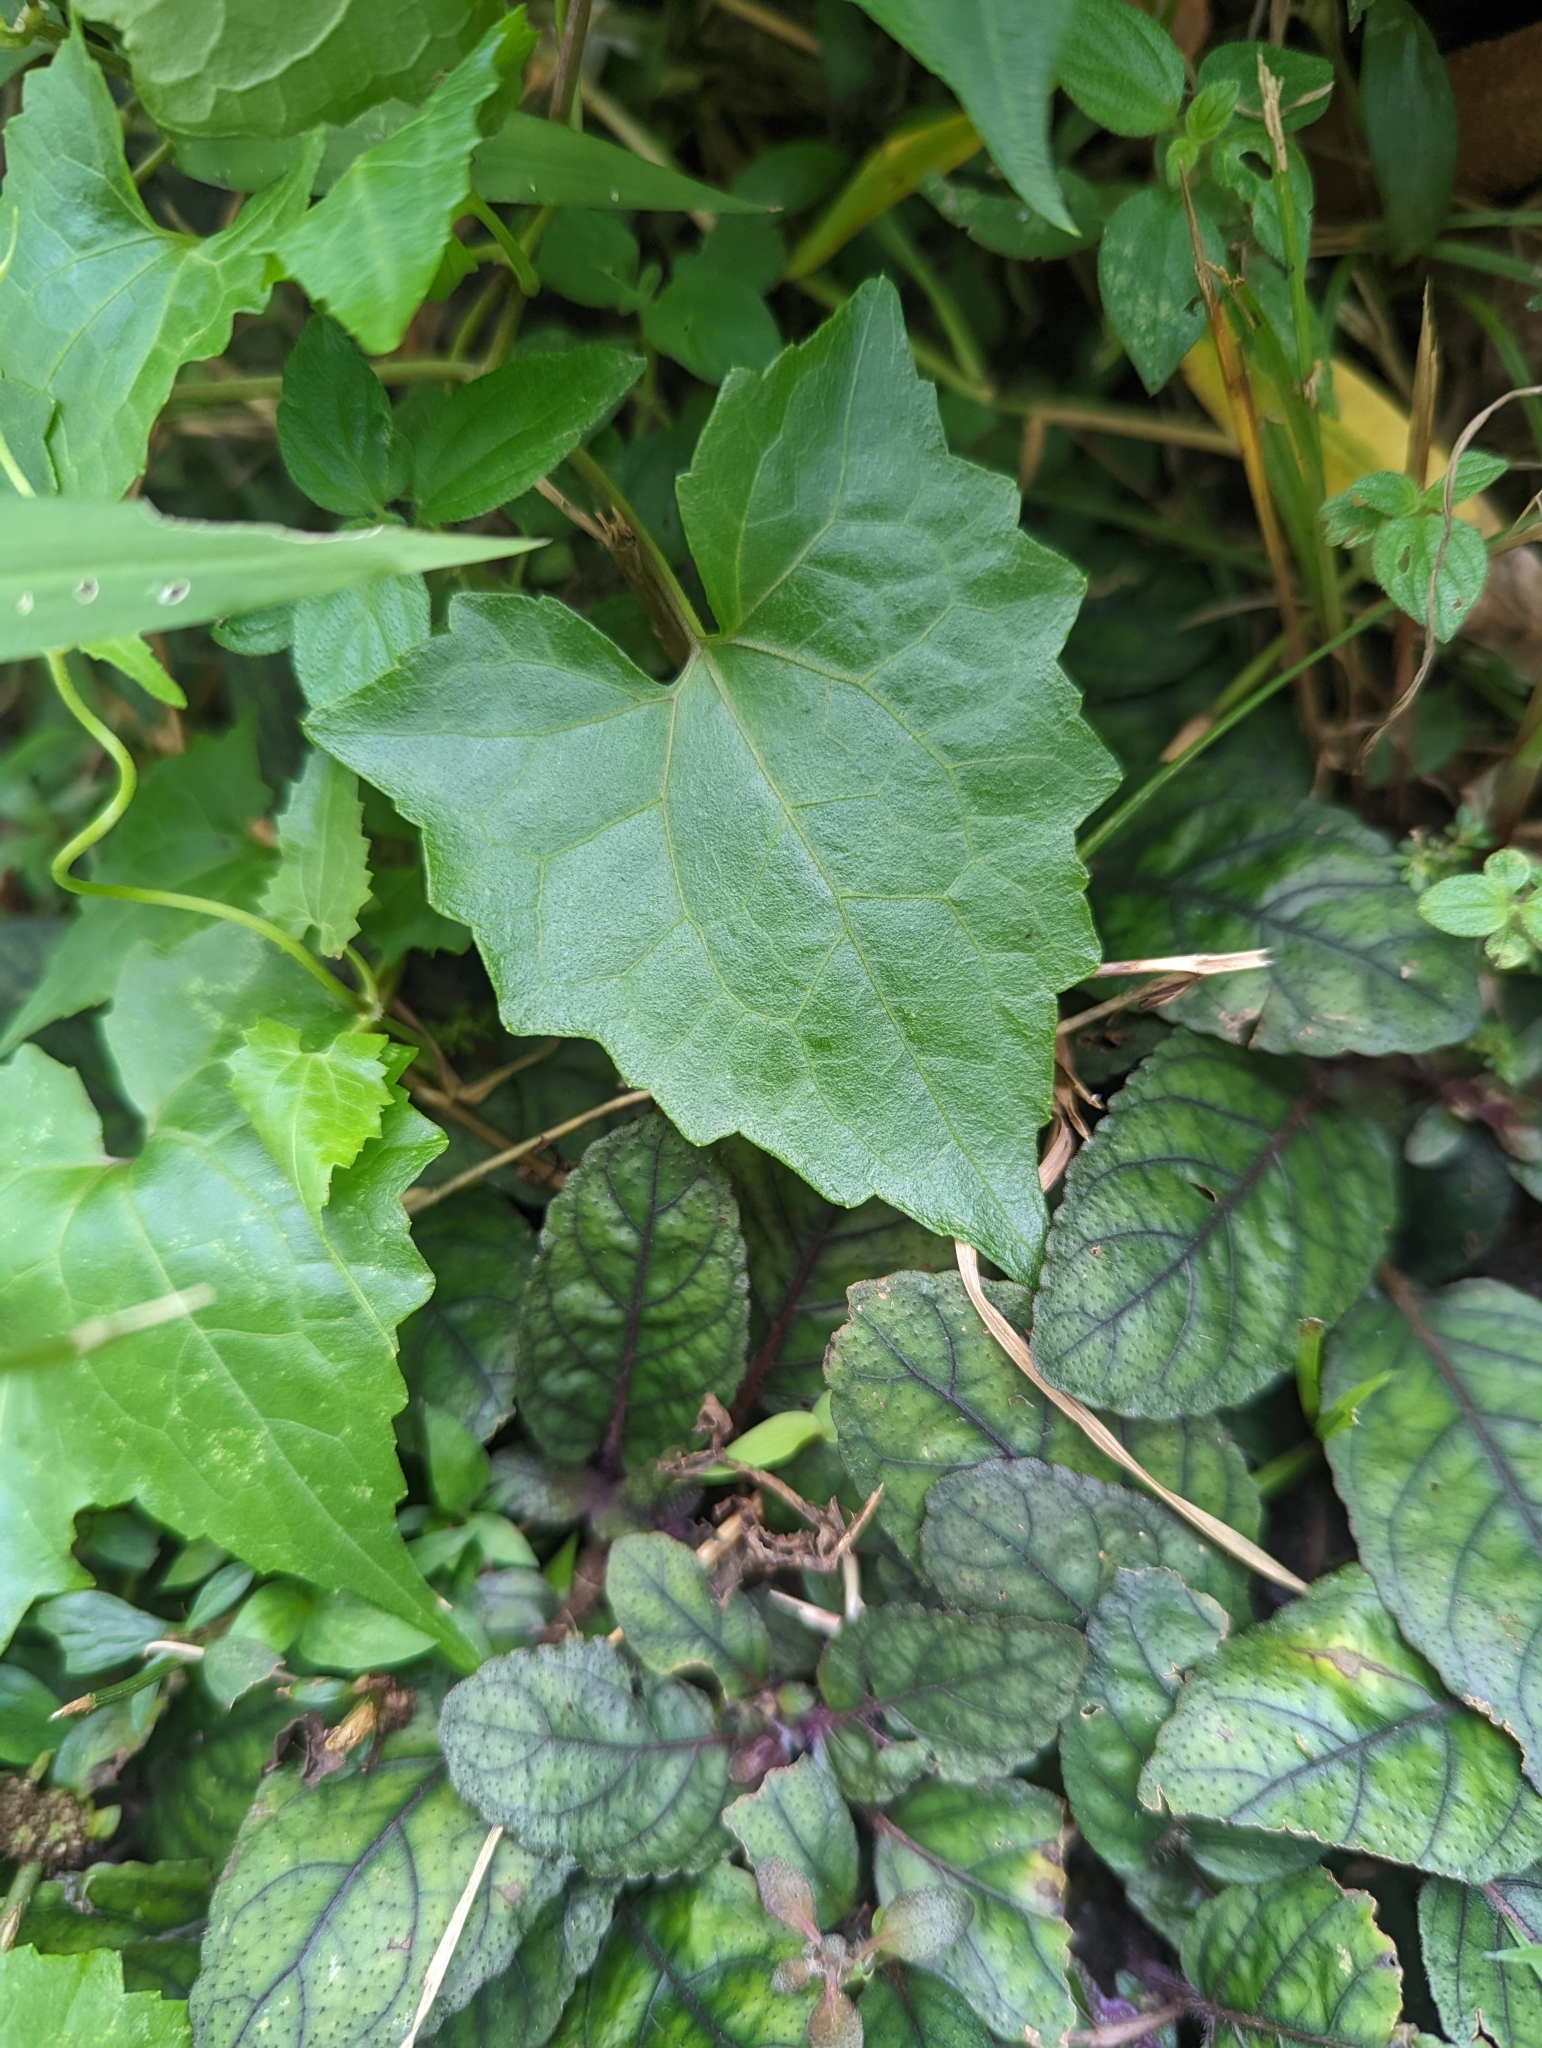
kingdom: Plantae
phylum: Tracheophyta
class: Magnoliopsida
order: Asterales
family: Asteraceae
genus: Mikania
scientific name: Mikania micrantha
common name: Mile-a-minute
